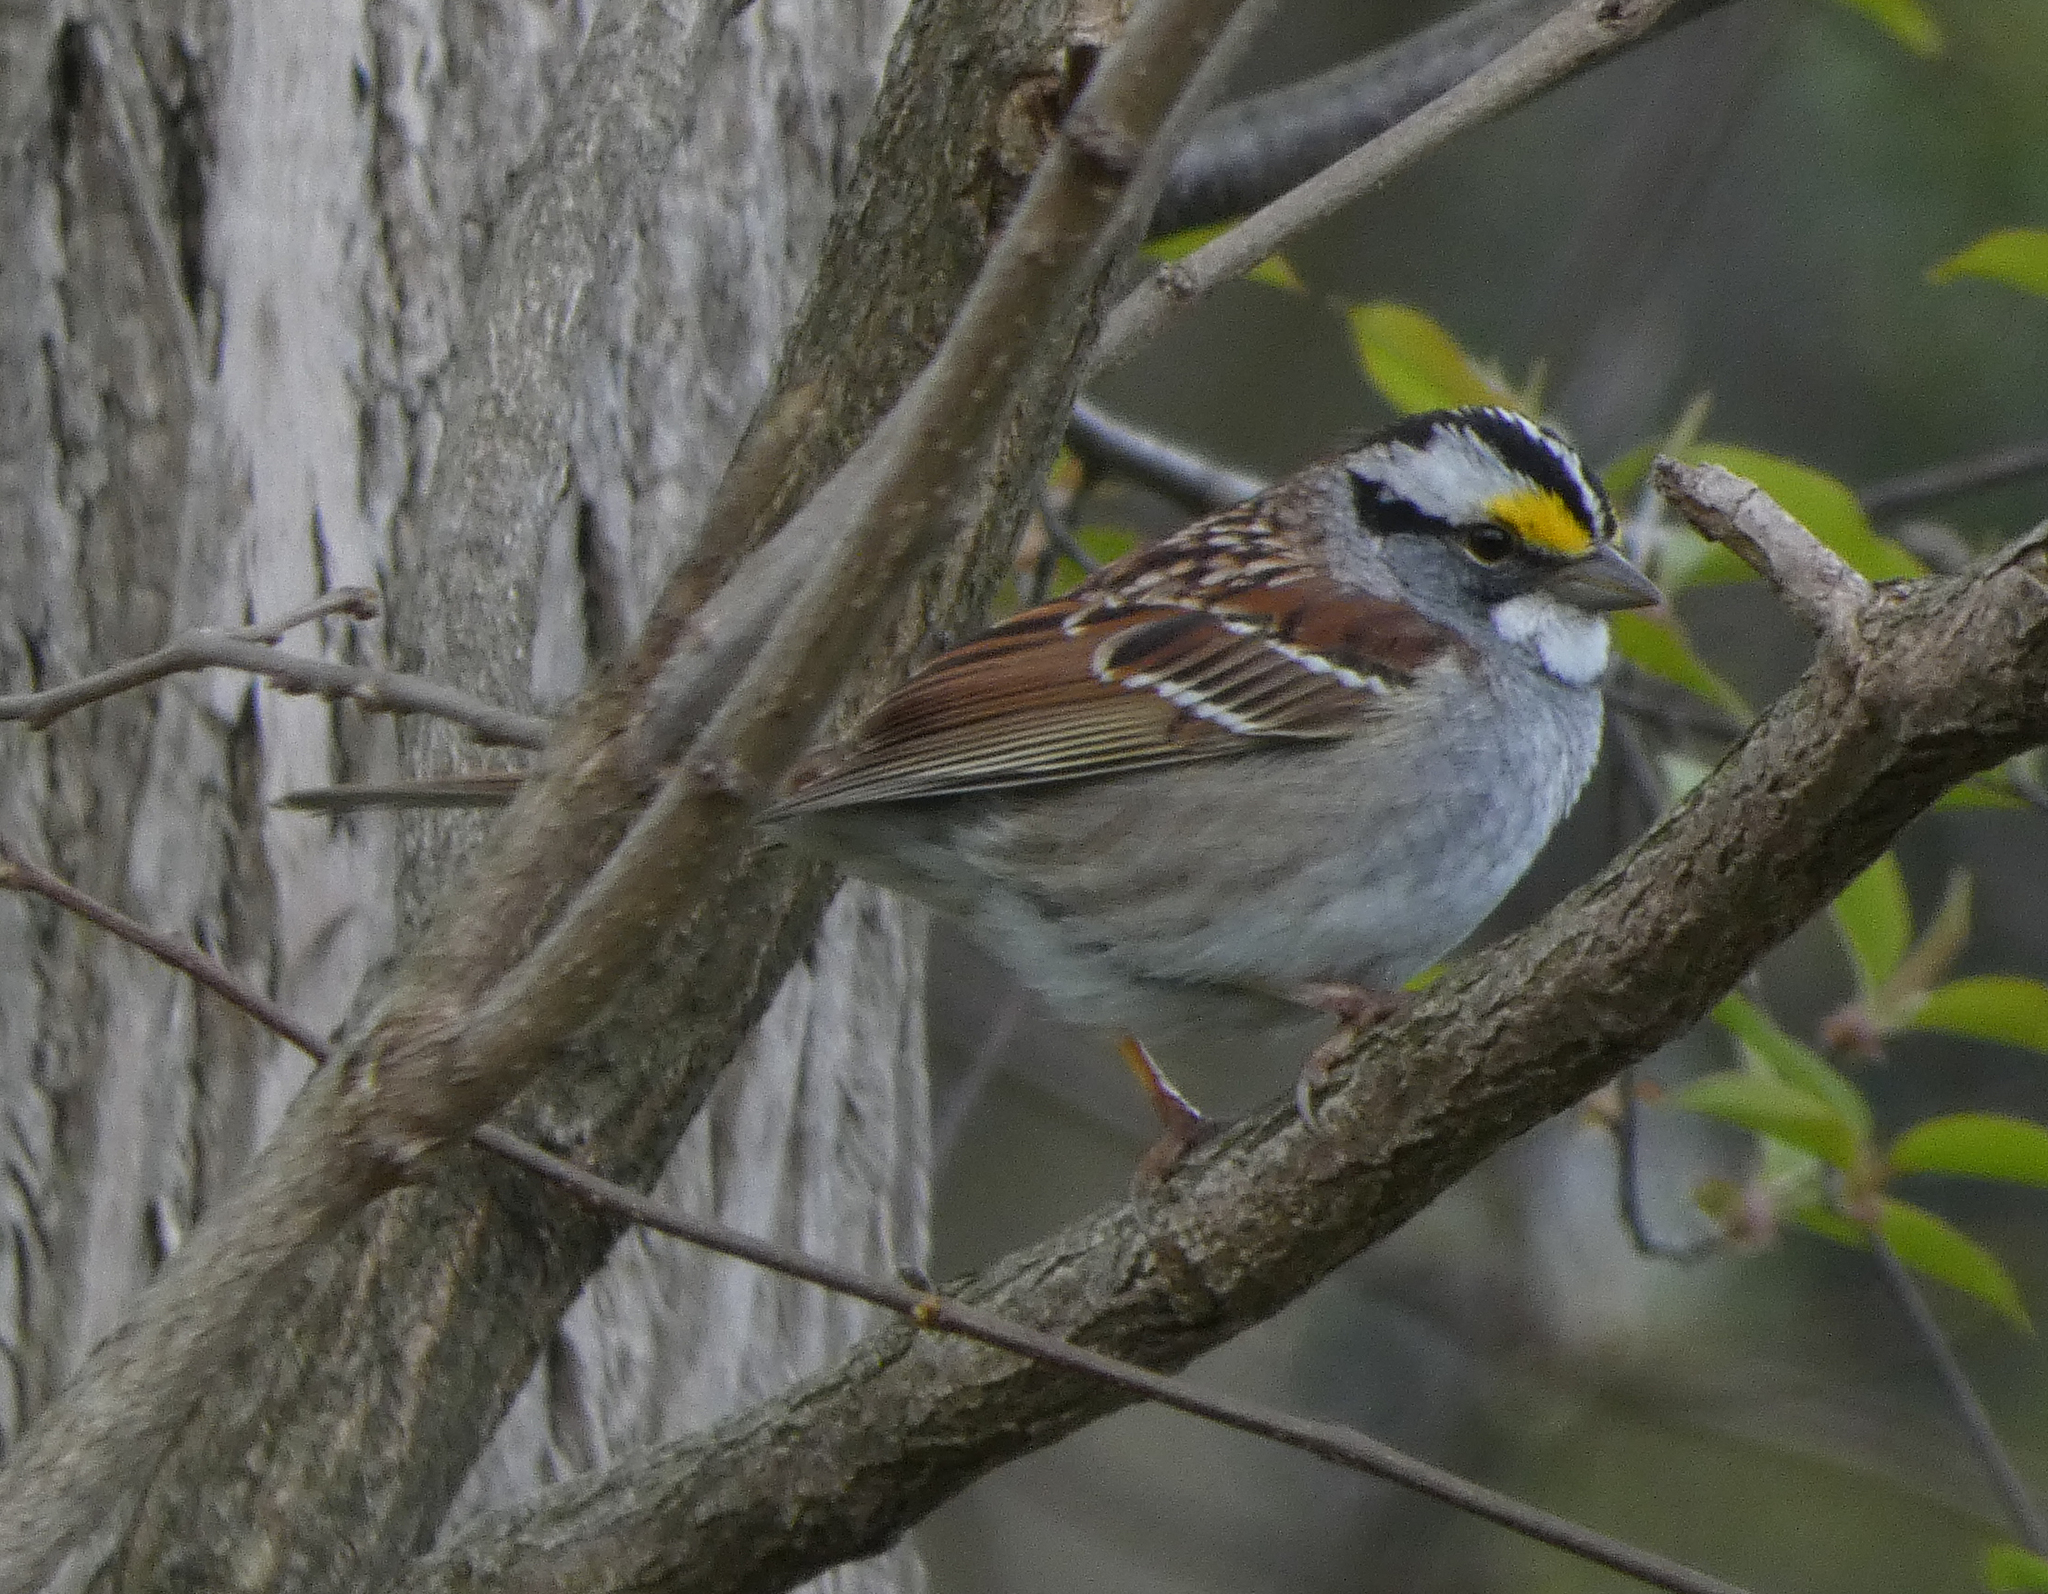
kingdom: Animalia
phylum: Chordata
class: Aves
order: Passeriformes
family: Passerellidae
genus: Zonotrichia
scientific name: Zonotrichia albicollis
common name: White-throated sparrow
